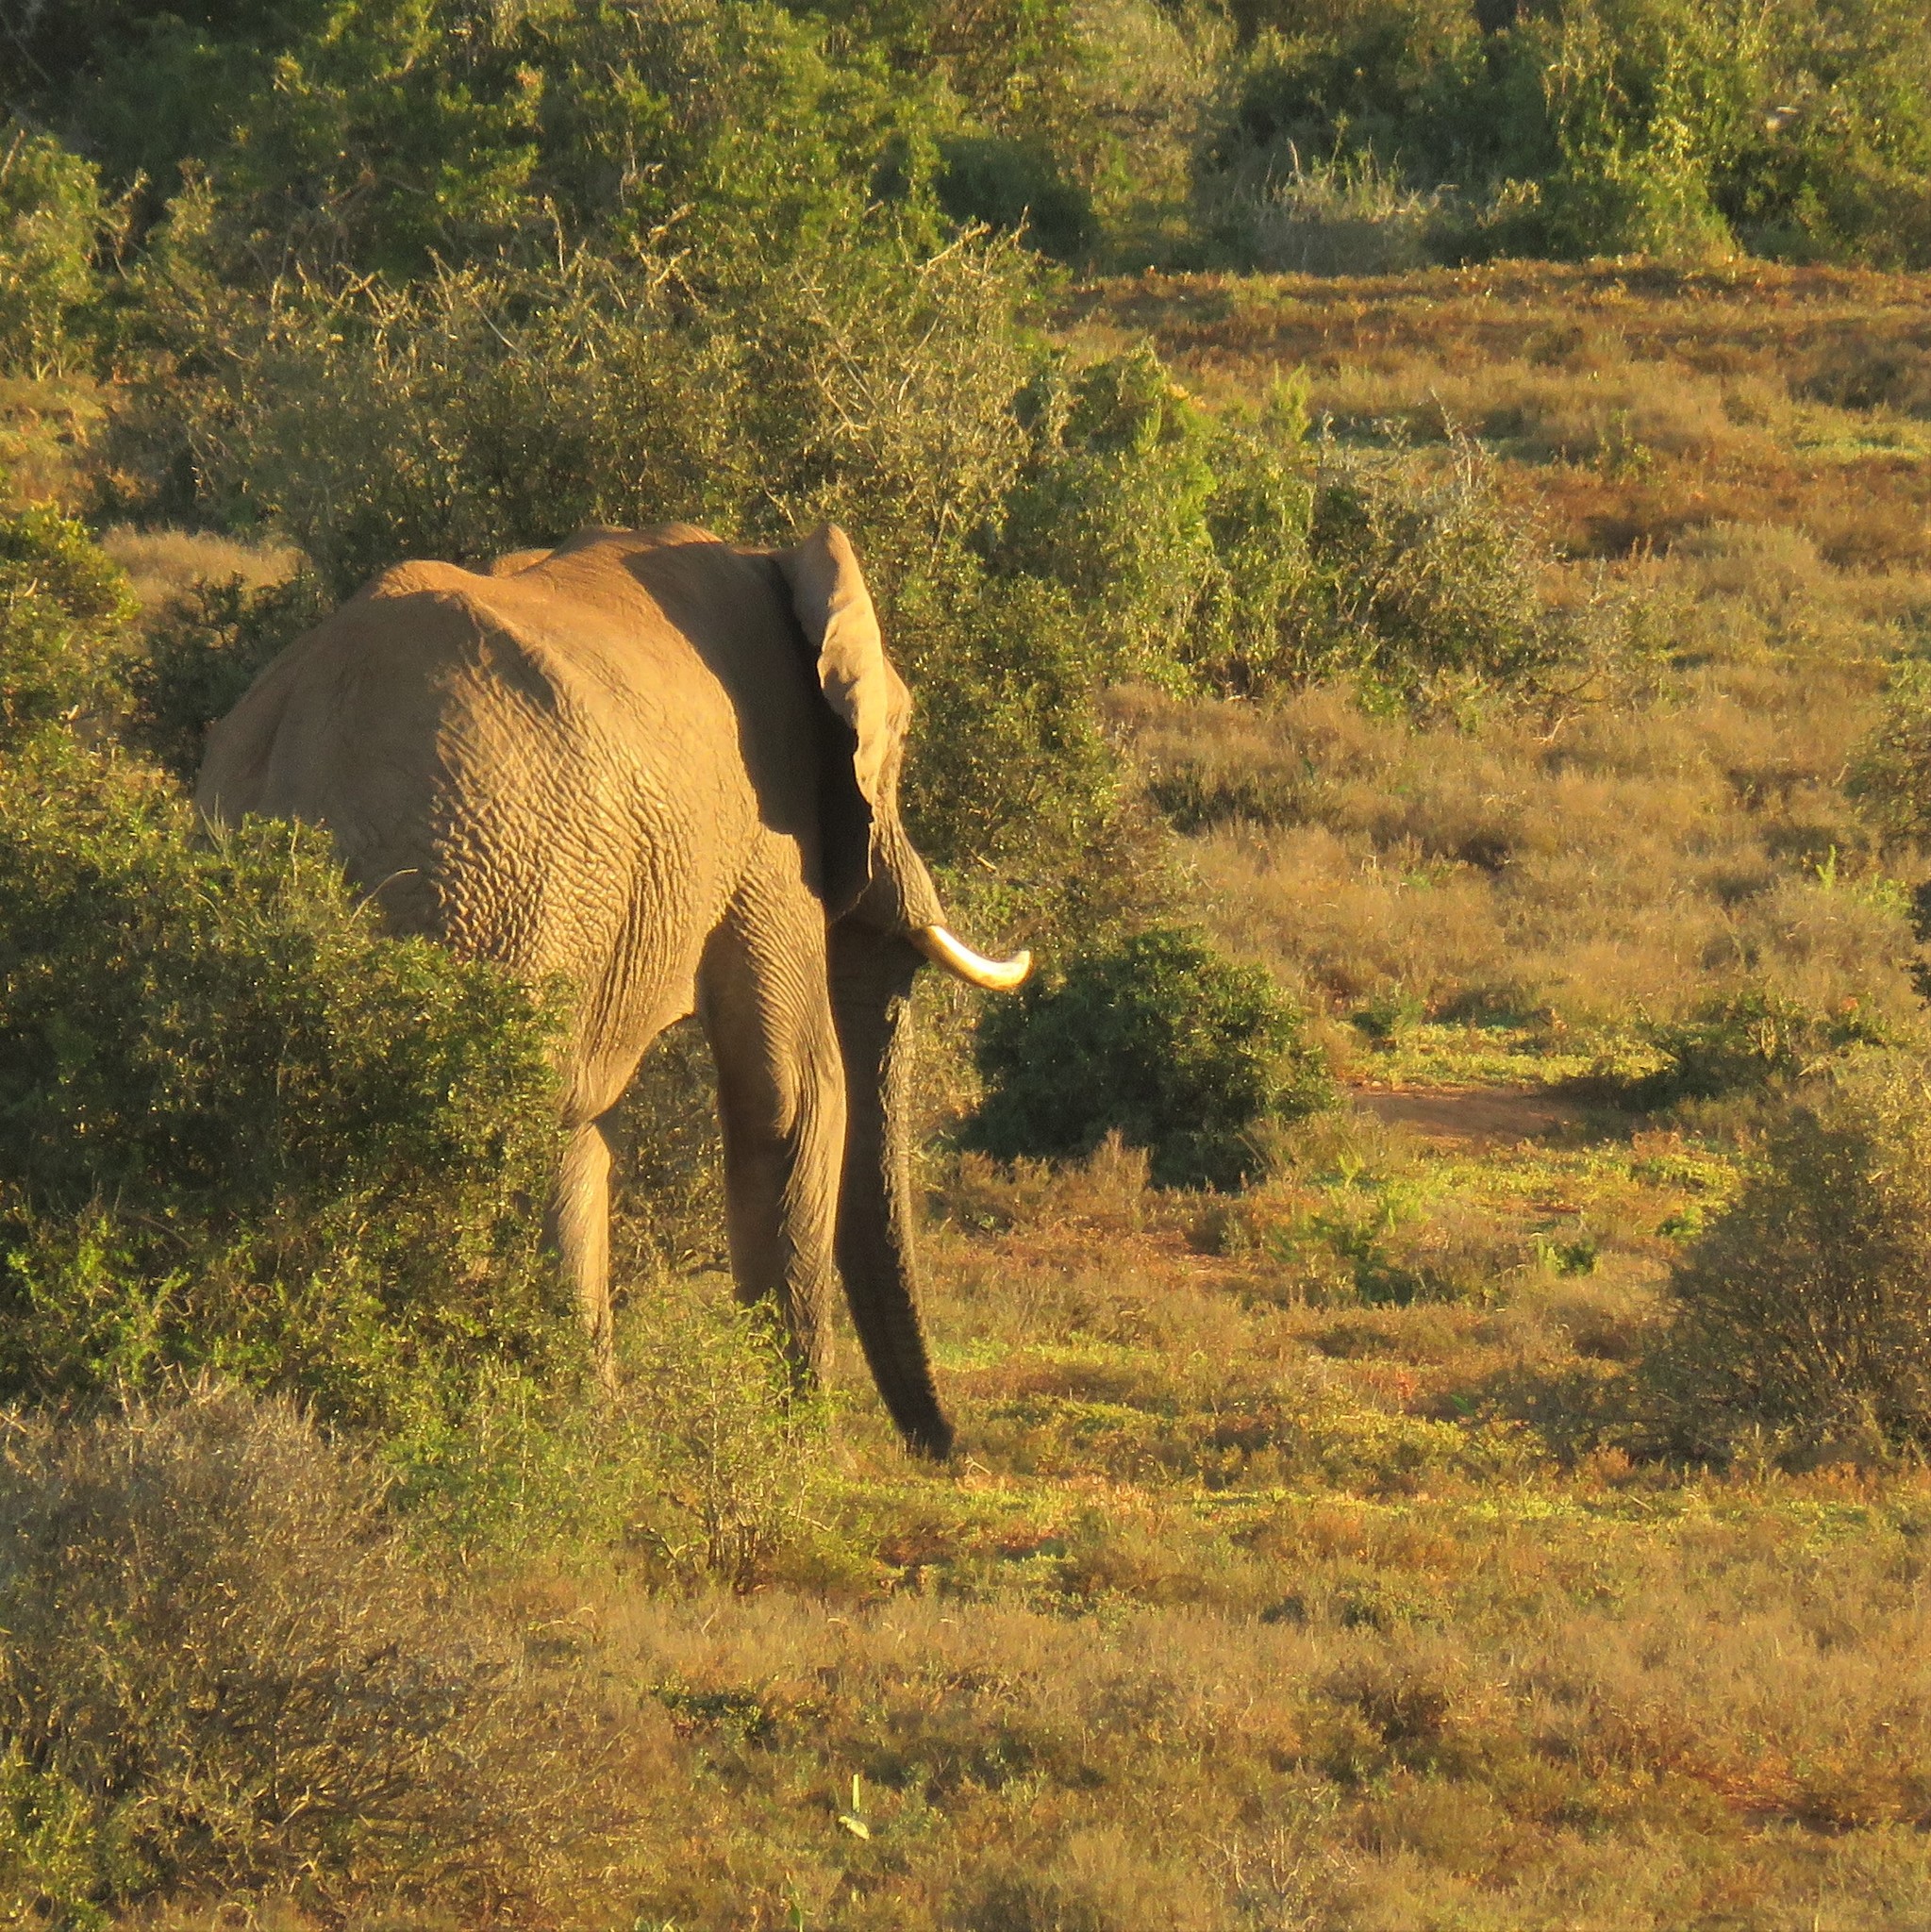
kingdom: Animalia
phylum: Chordata
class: Mammalia
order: Proboscidea
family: Elephantidae
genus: Loxodonta
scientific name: Loxodonta africana
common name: African elephant
